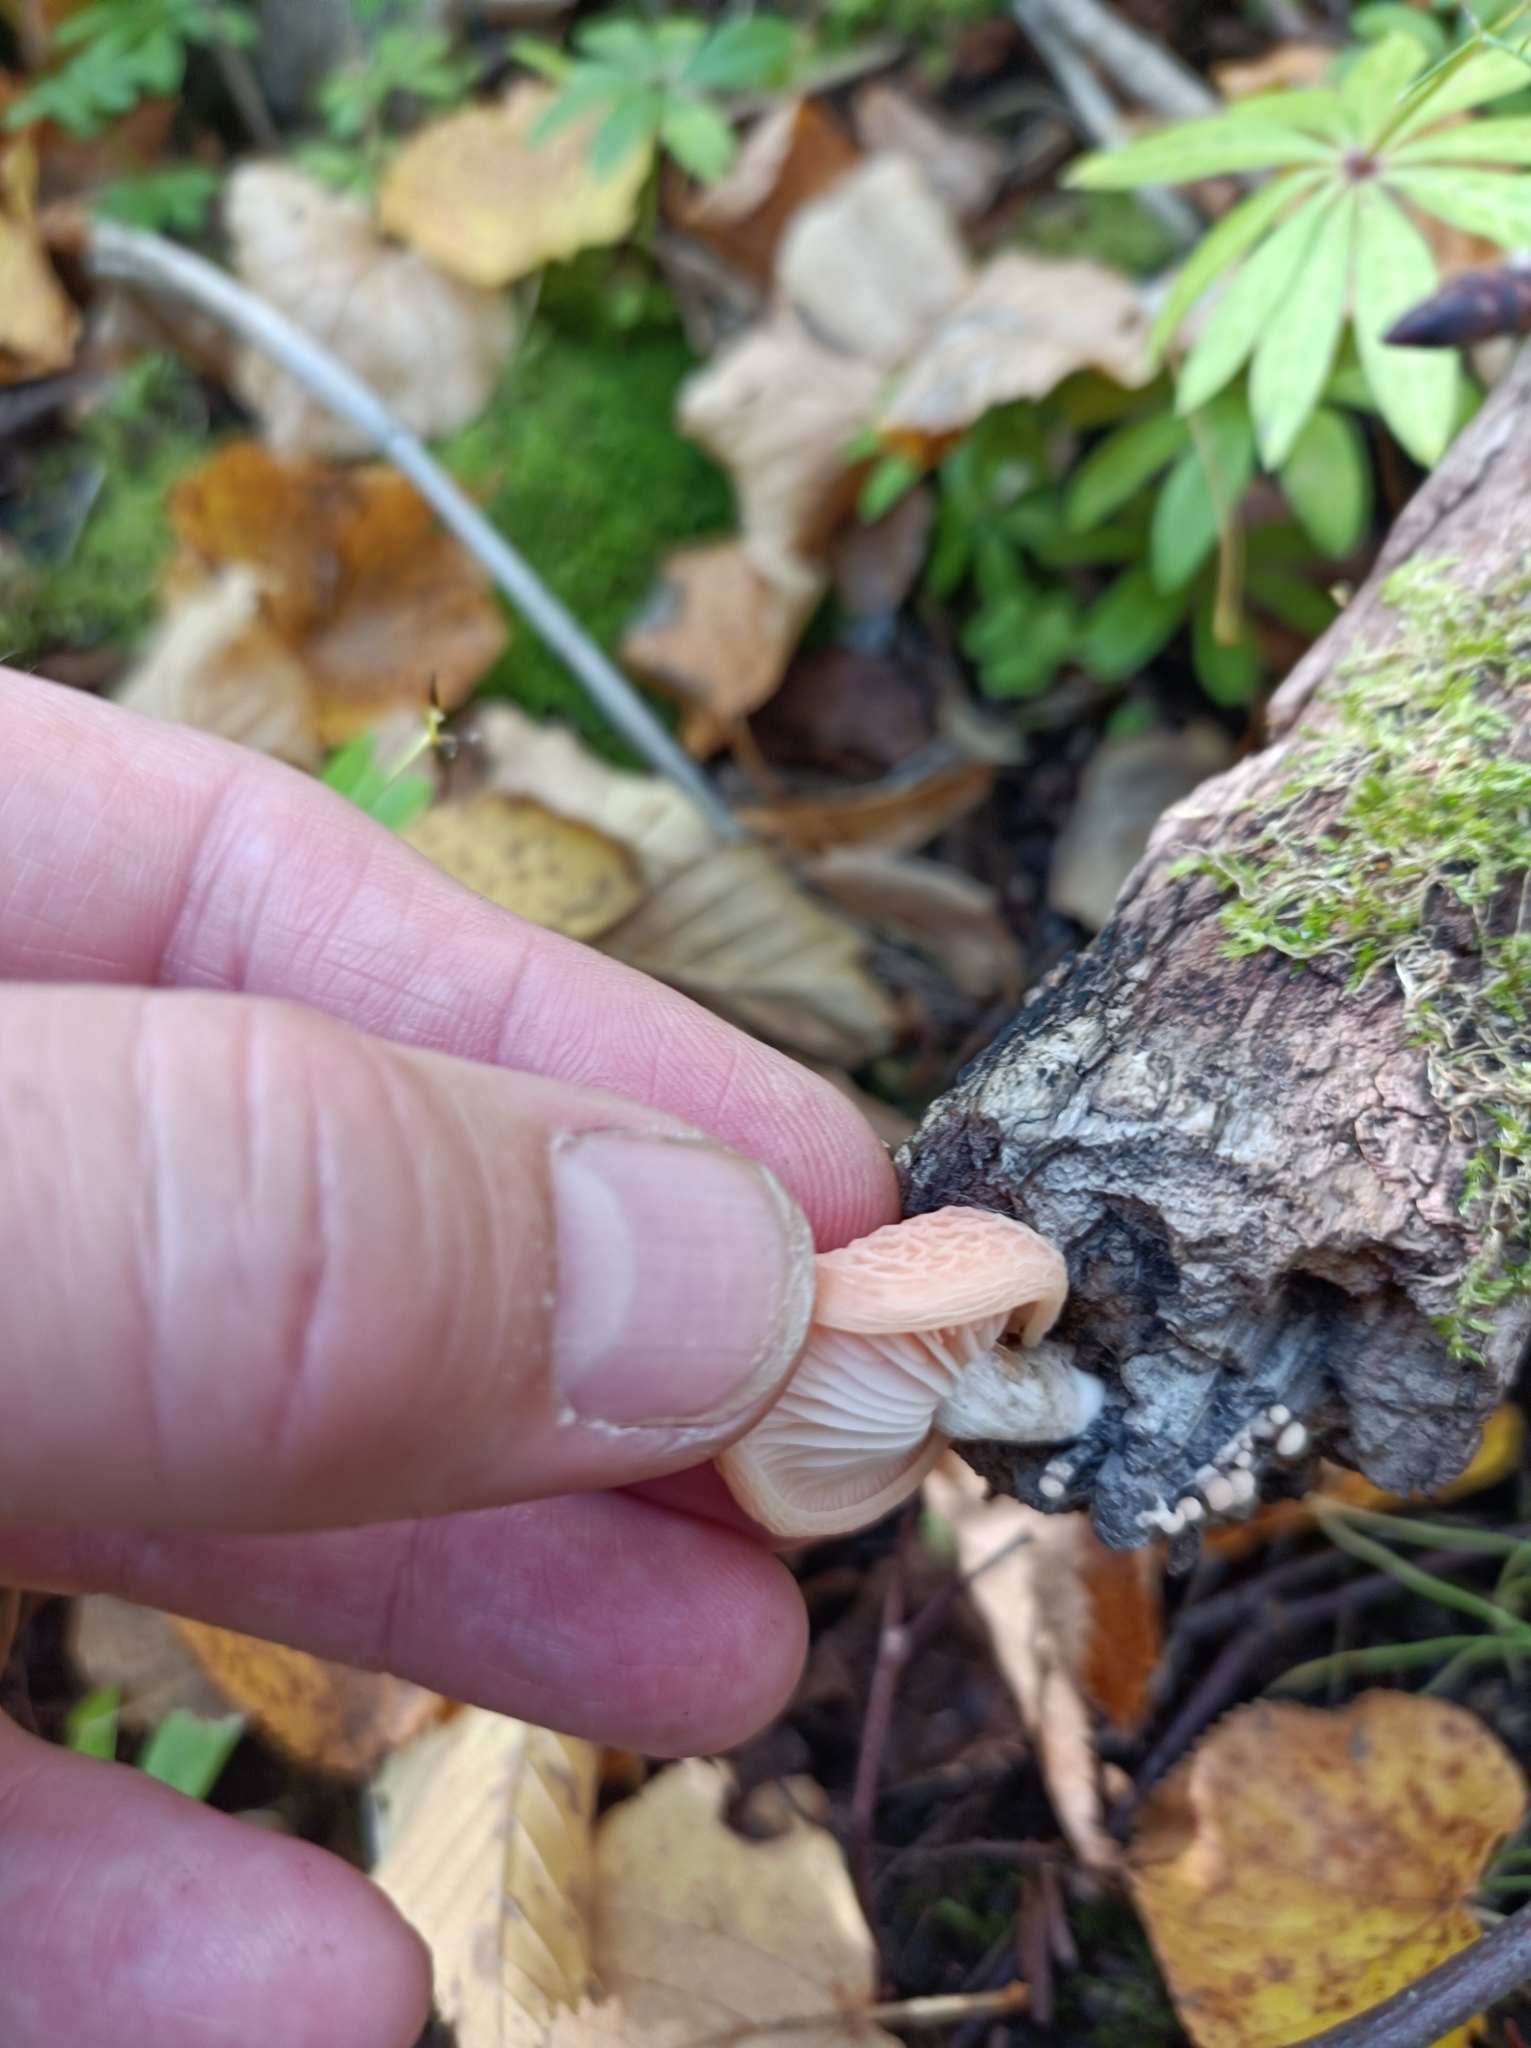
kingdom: Fungi
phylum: Basidiomycota
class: Agaricomycetes
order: Agaricales
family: Physalacriaceae
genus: Rhodotus
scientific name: Rhodotus palmatus
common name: Wrinkled peach
